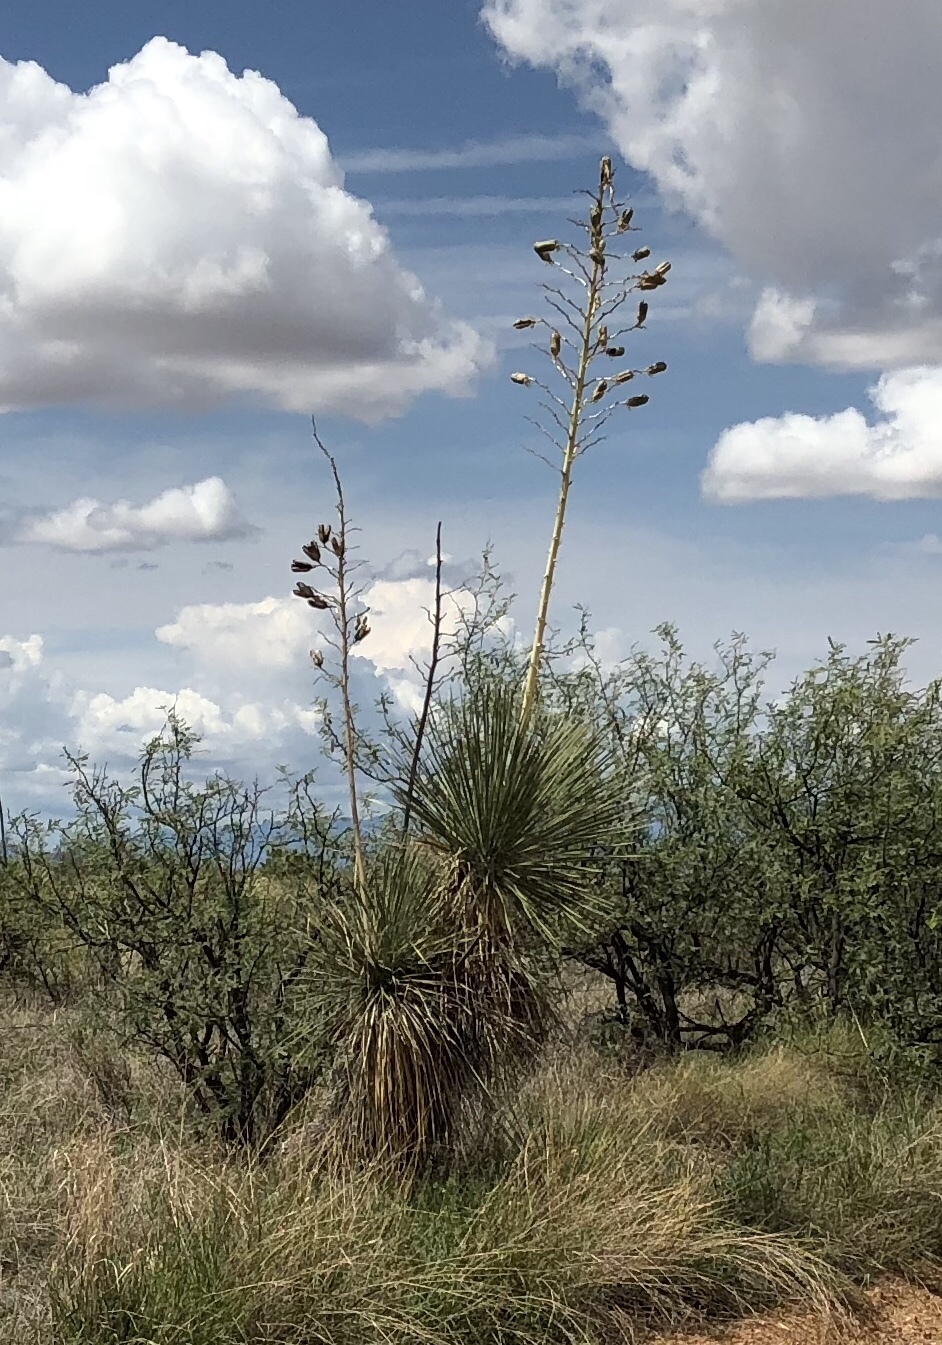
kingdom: Plantae
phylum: Tracheophyta
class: Liliopsida
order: Asparagales
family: Asparagaceae
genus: Yucca
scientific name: Yucca elata
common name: Palmella
